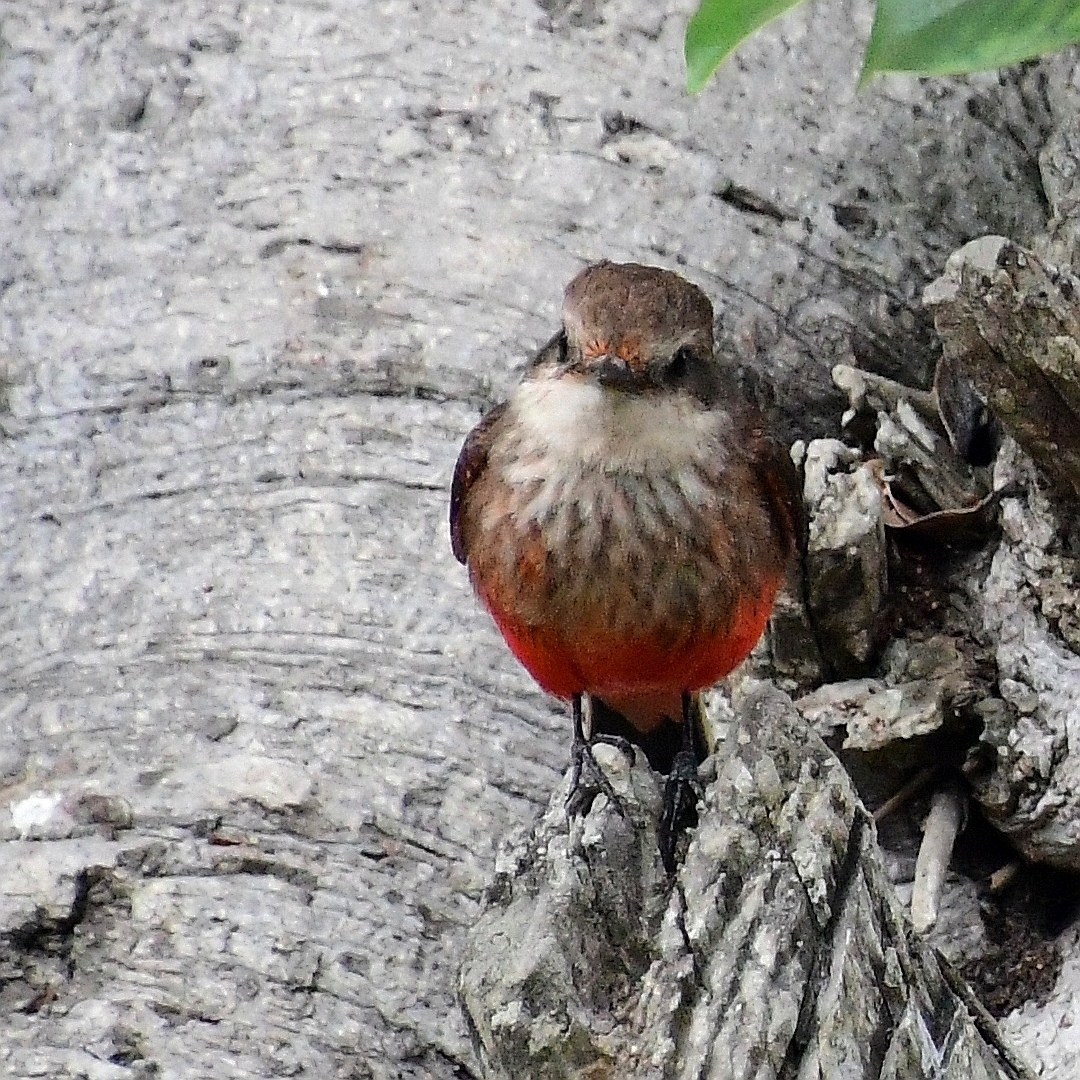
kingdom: Animalia
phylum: Chordata
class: Aves
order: Passeriformes
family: Tyrannidae
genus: Pyrocephalus
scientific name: Pyrocephalus rubinus
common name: Vermilion flycatcher
